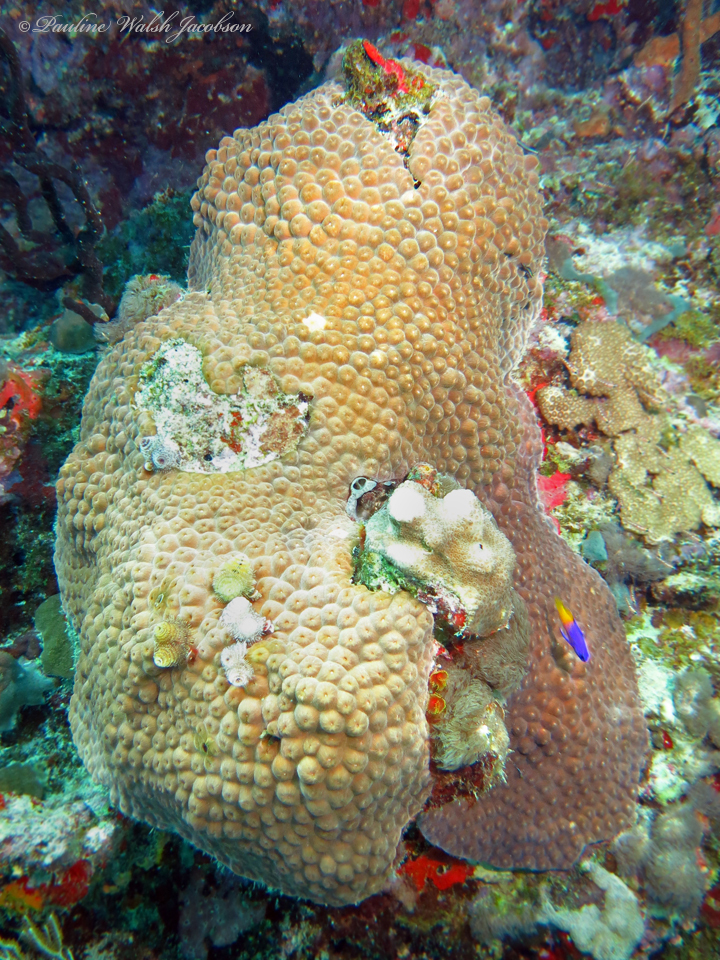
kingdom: Animalia
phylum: Cnidaria
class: Anthozoa
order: Scleractinia
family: Montastraeidae
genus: Montastraea
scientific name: Montastraea cavernosa
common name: Great star coral
